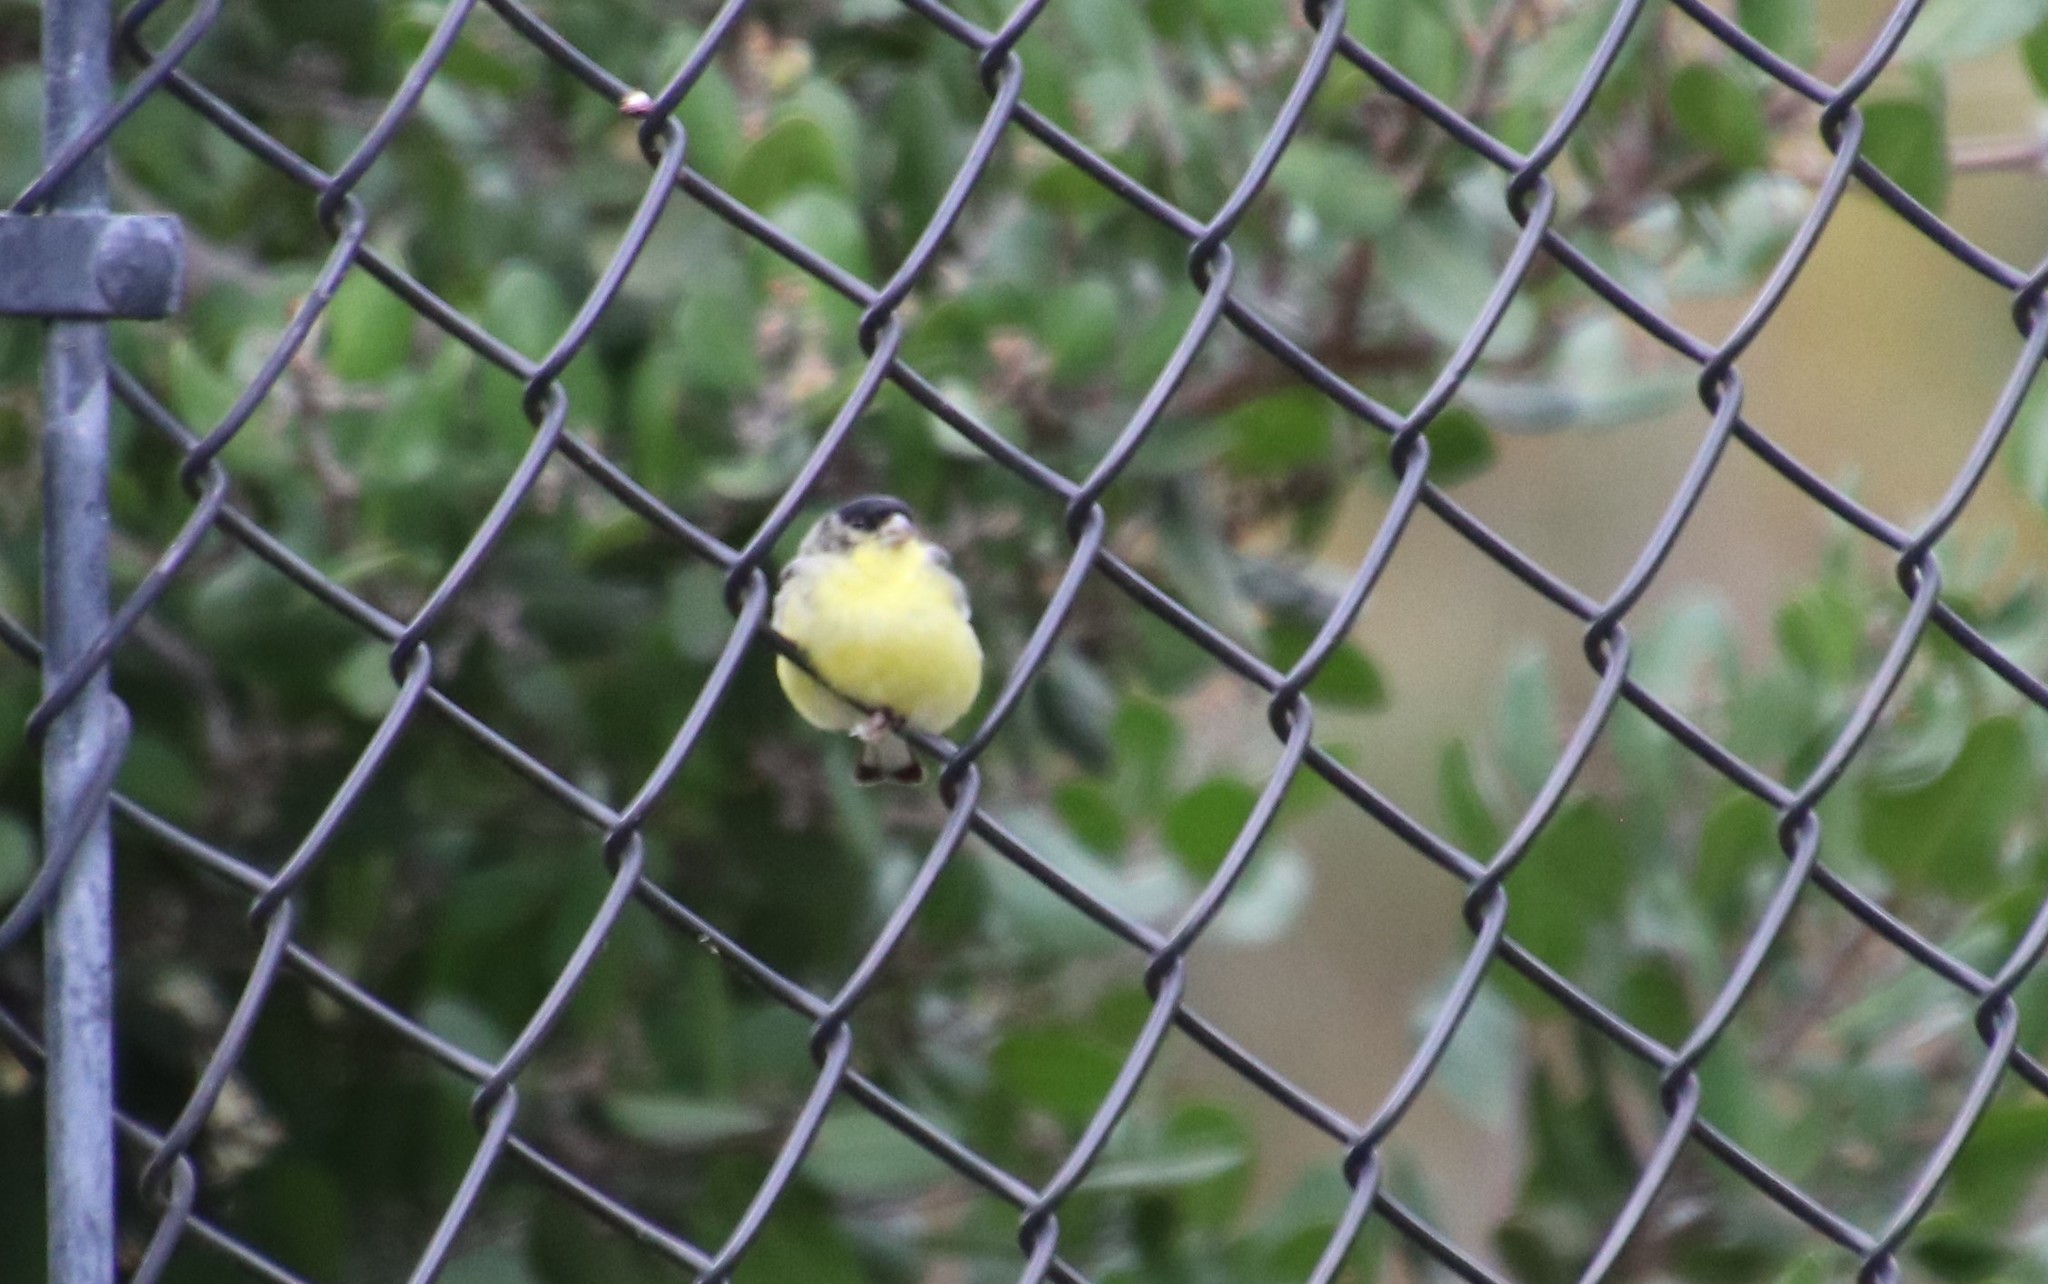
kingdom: Animalia
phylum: Chordata
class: Aves
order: Passeriformes
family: Fringillidae
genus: Spinus
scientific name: Spinus psaltria
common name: Lesser goldfinch
